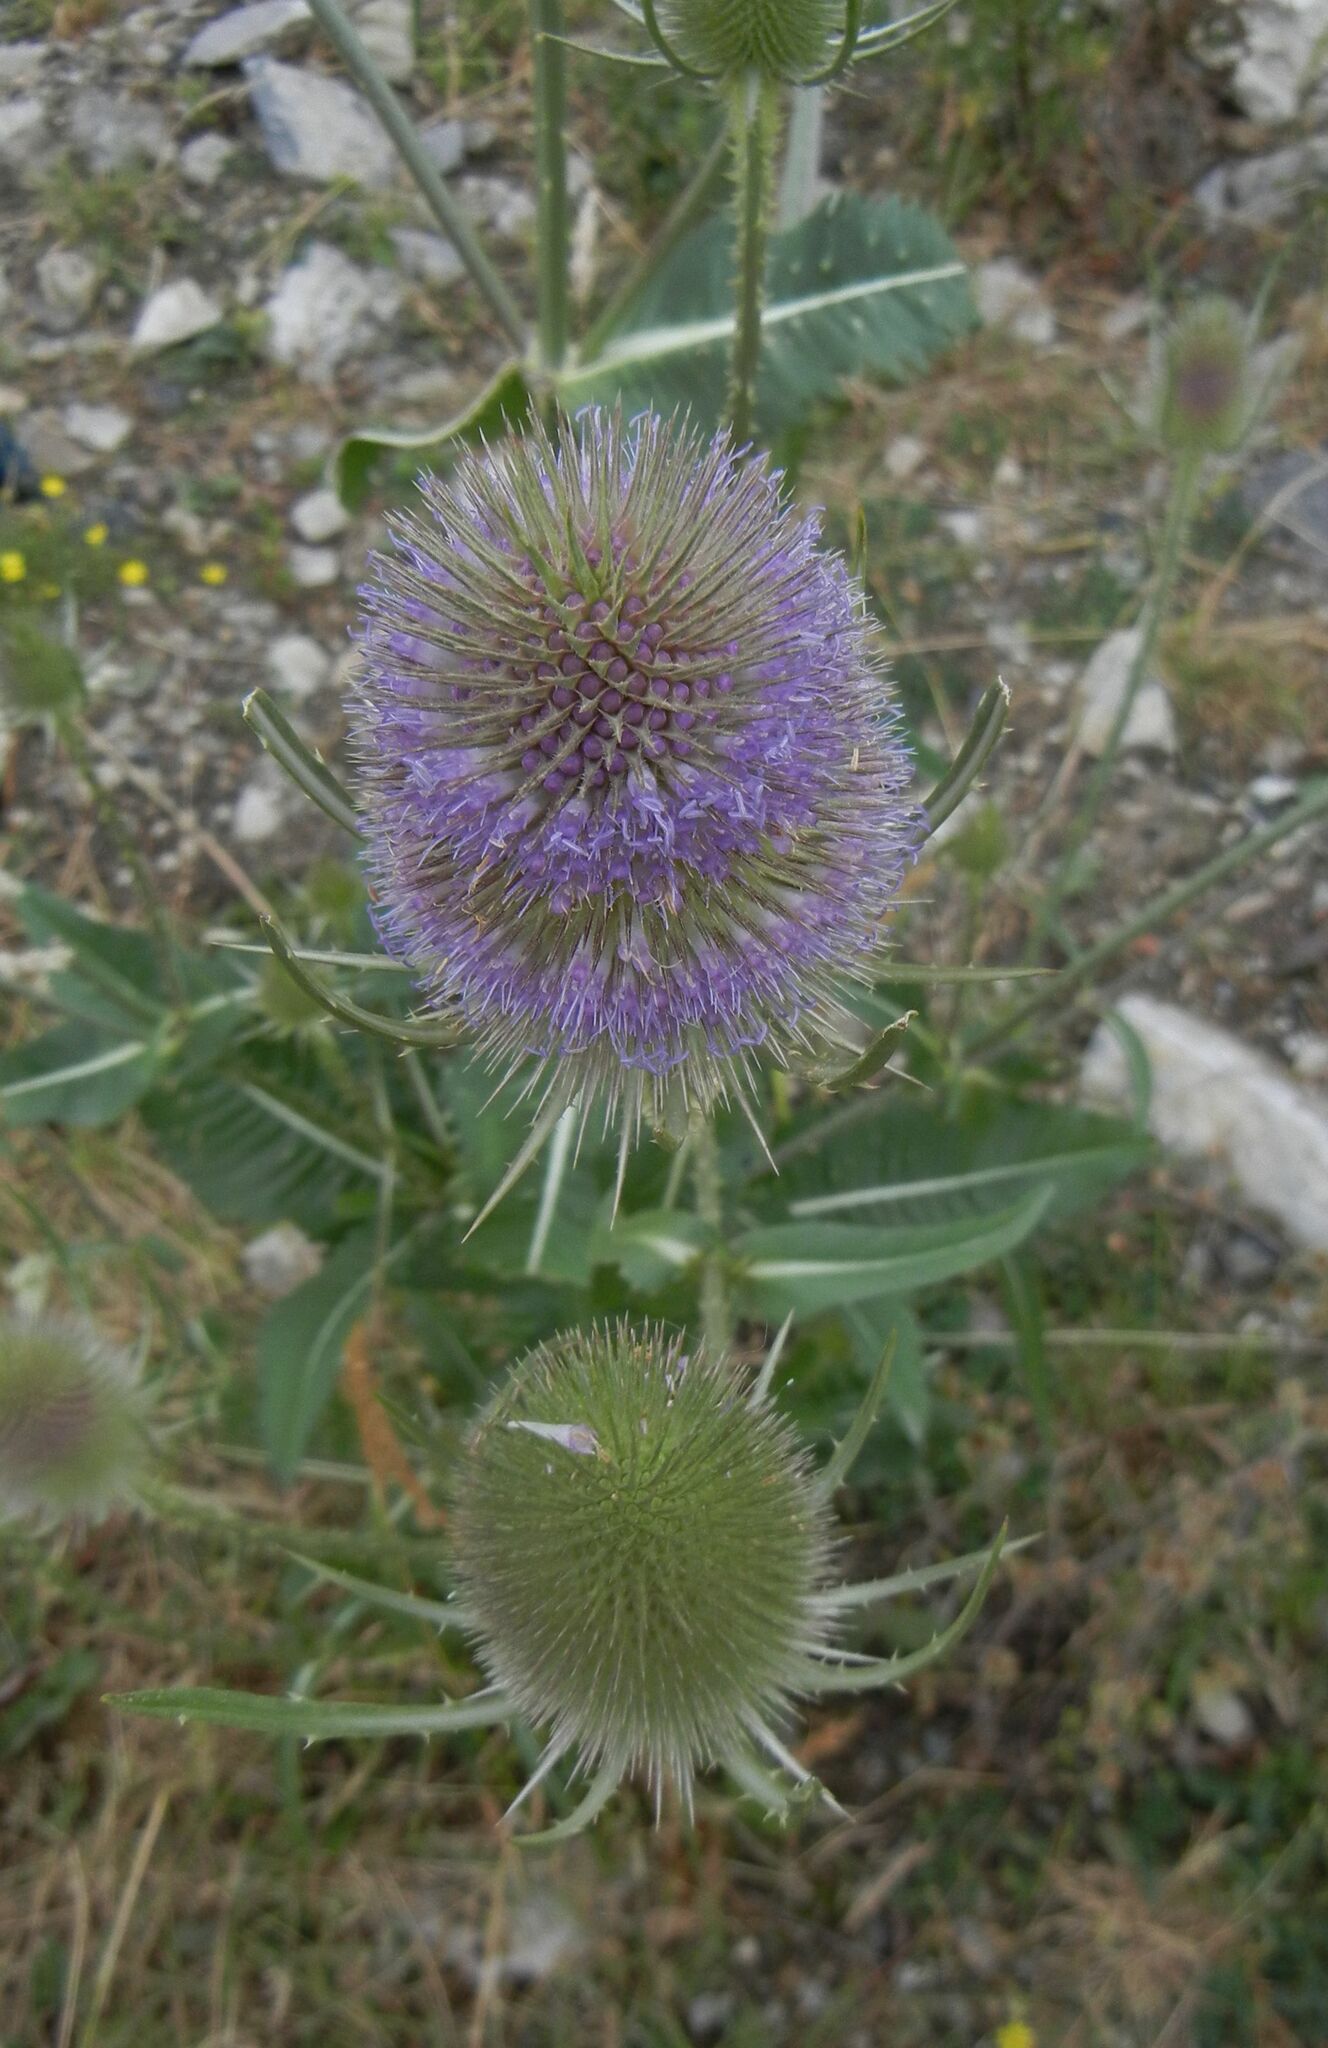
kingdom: Plantae
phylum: Tracheophyta
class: Magnoliopsida
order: Dipsacales
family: Caprifoliaceae
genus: Dipsacus
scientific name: Dipsacus fullonum
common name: Teasel
